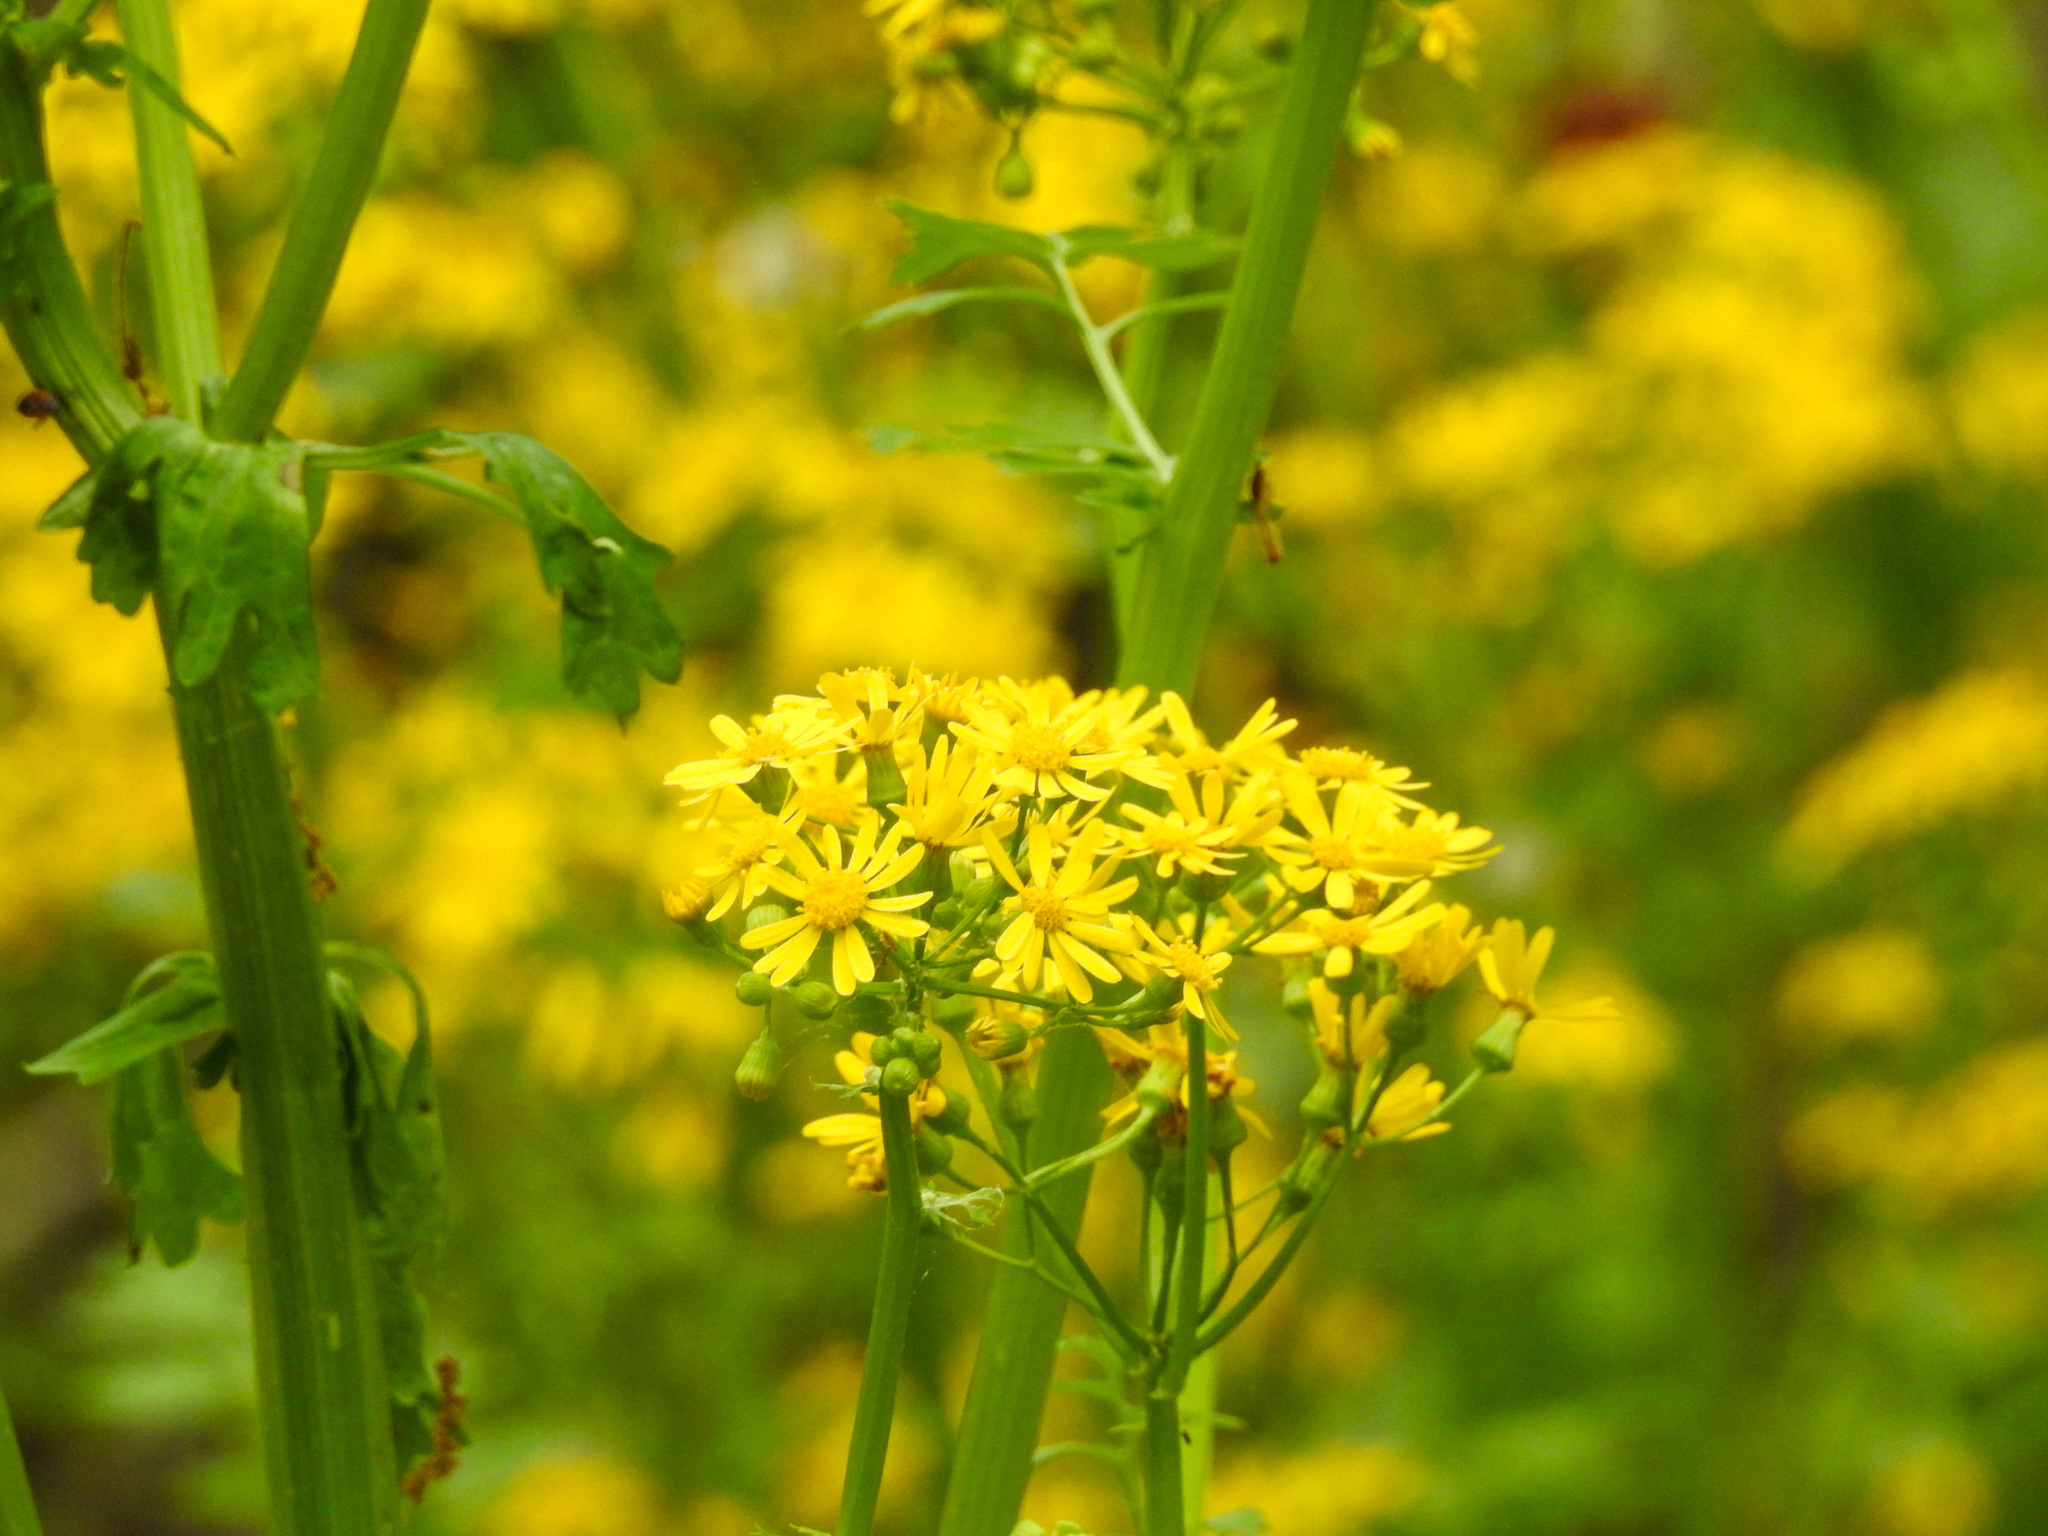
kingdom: Plantae
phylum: Tracheophyta
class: Magnoliopsida
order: Asterales
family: Asteraceae
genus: Packera
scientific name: Packera glabella
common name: Butterweed
